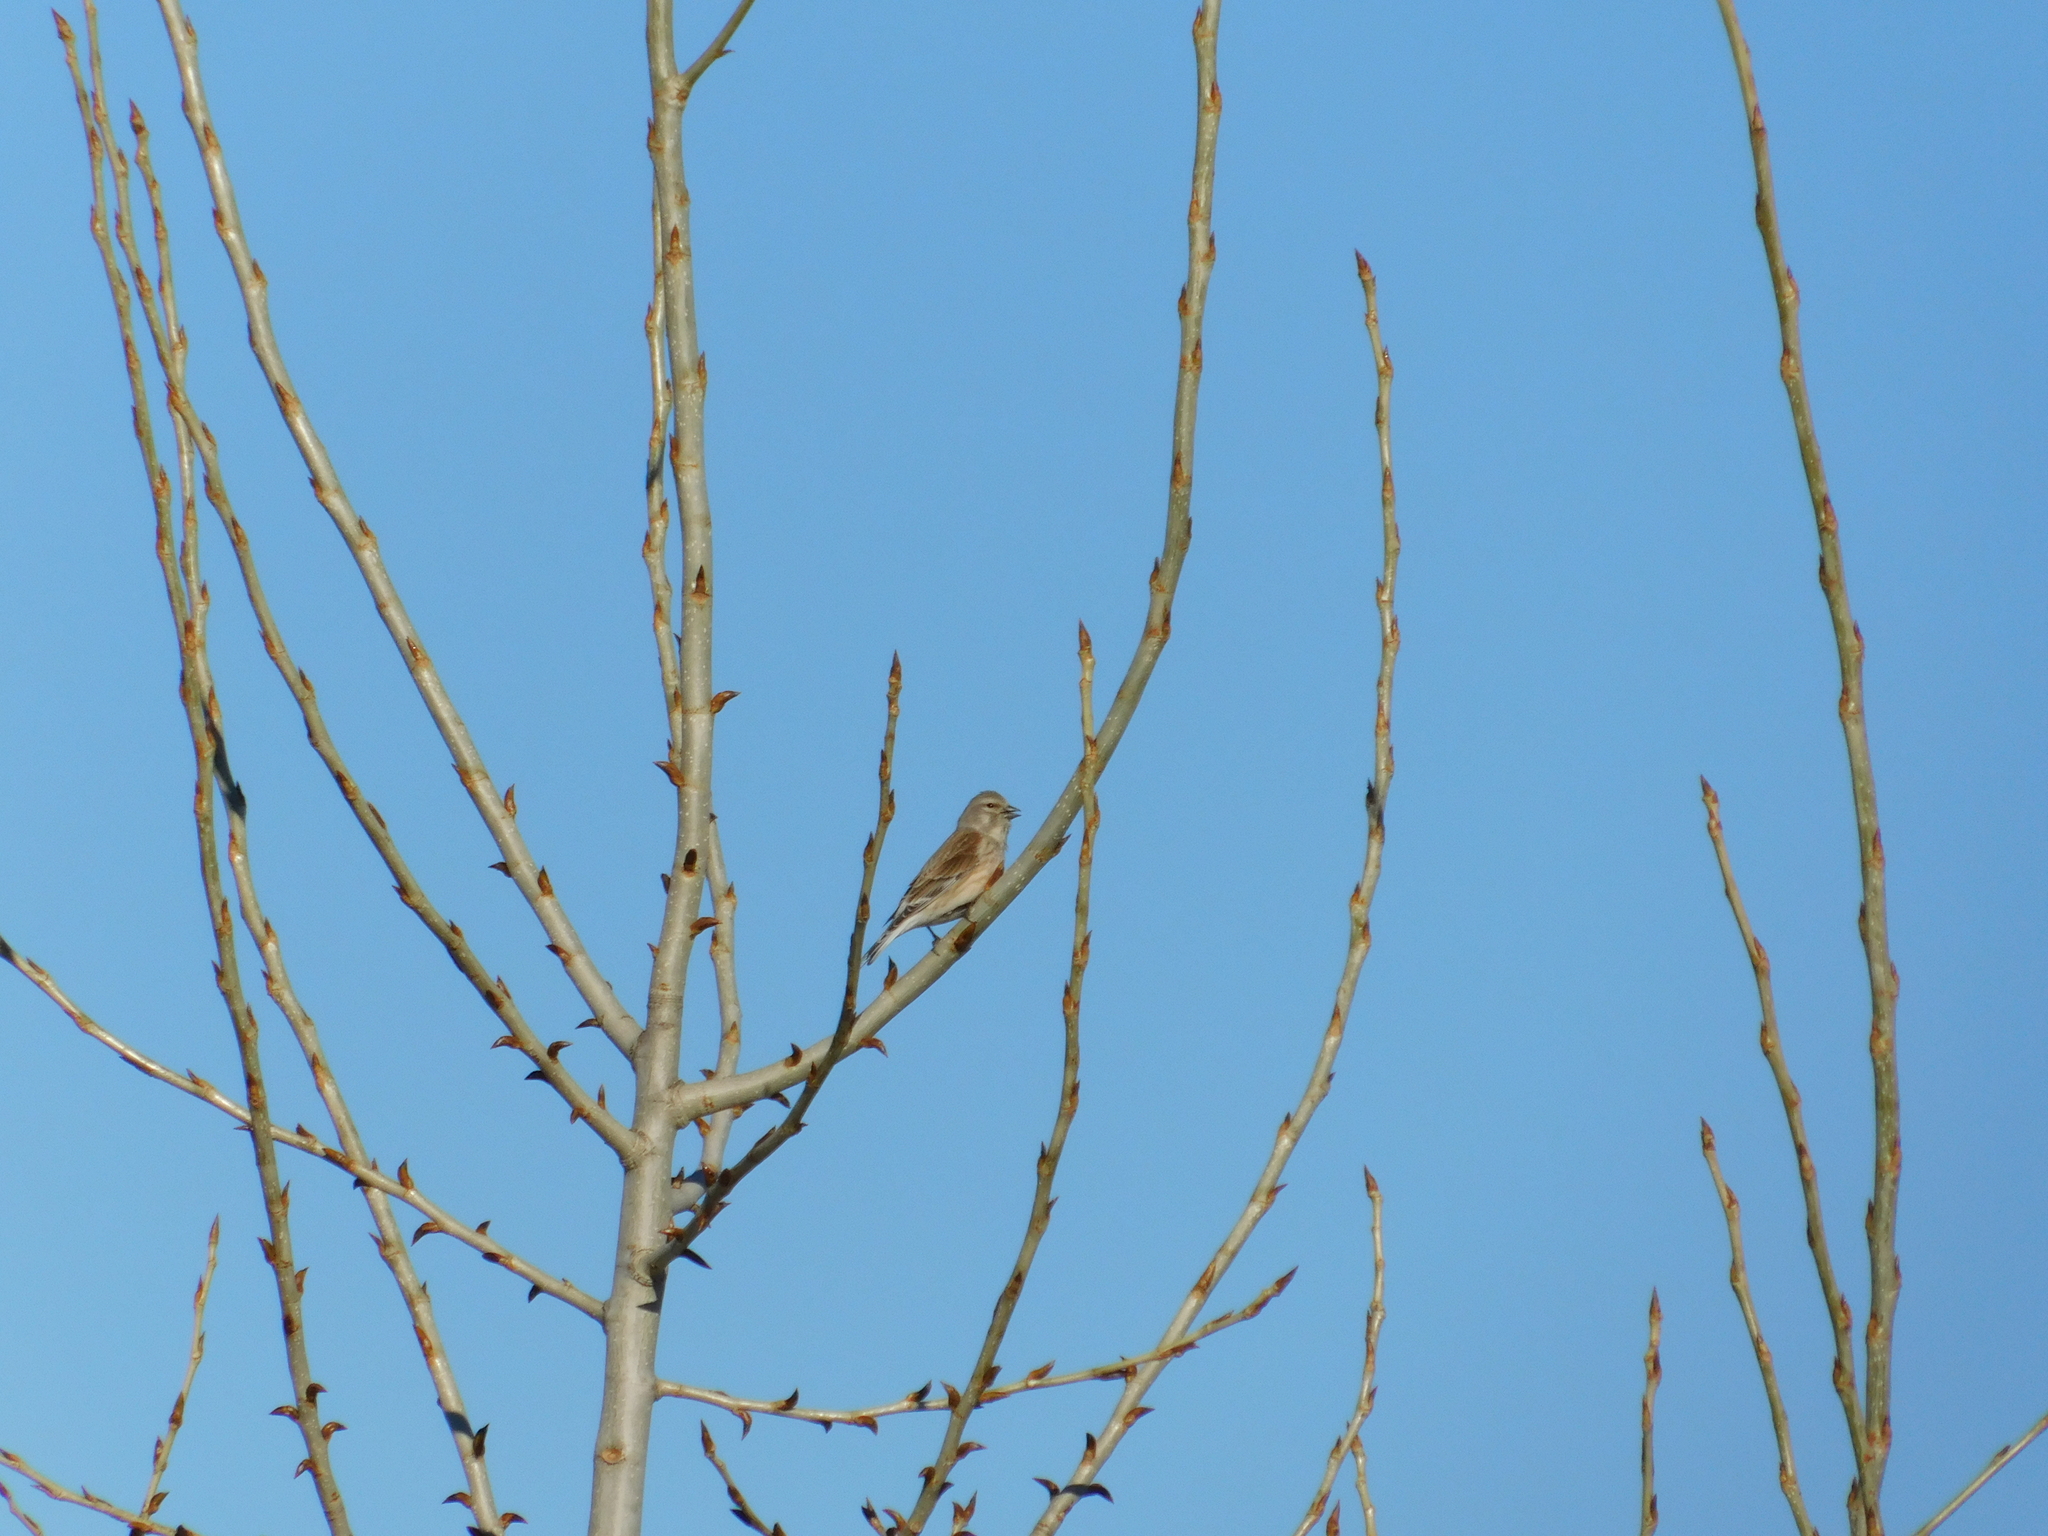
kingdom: Animalia
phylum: Chordata
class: Aves
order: Passeriformes
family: Fringillidae
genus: Linaria
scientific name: Linaria cannabina
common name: Common linnet
